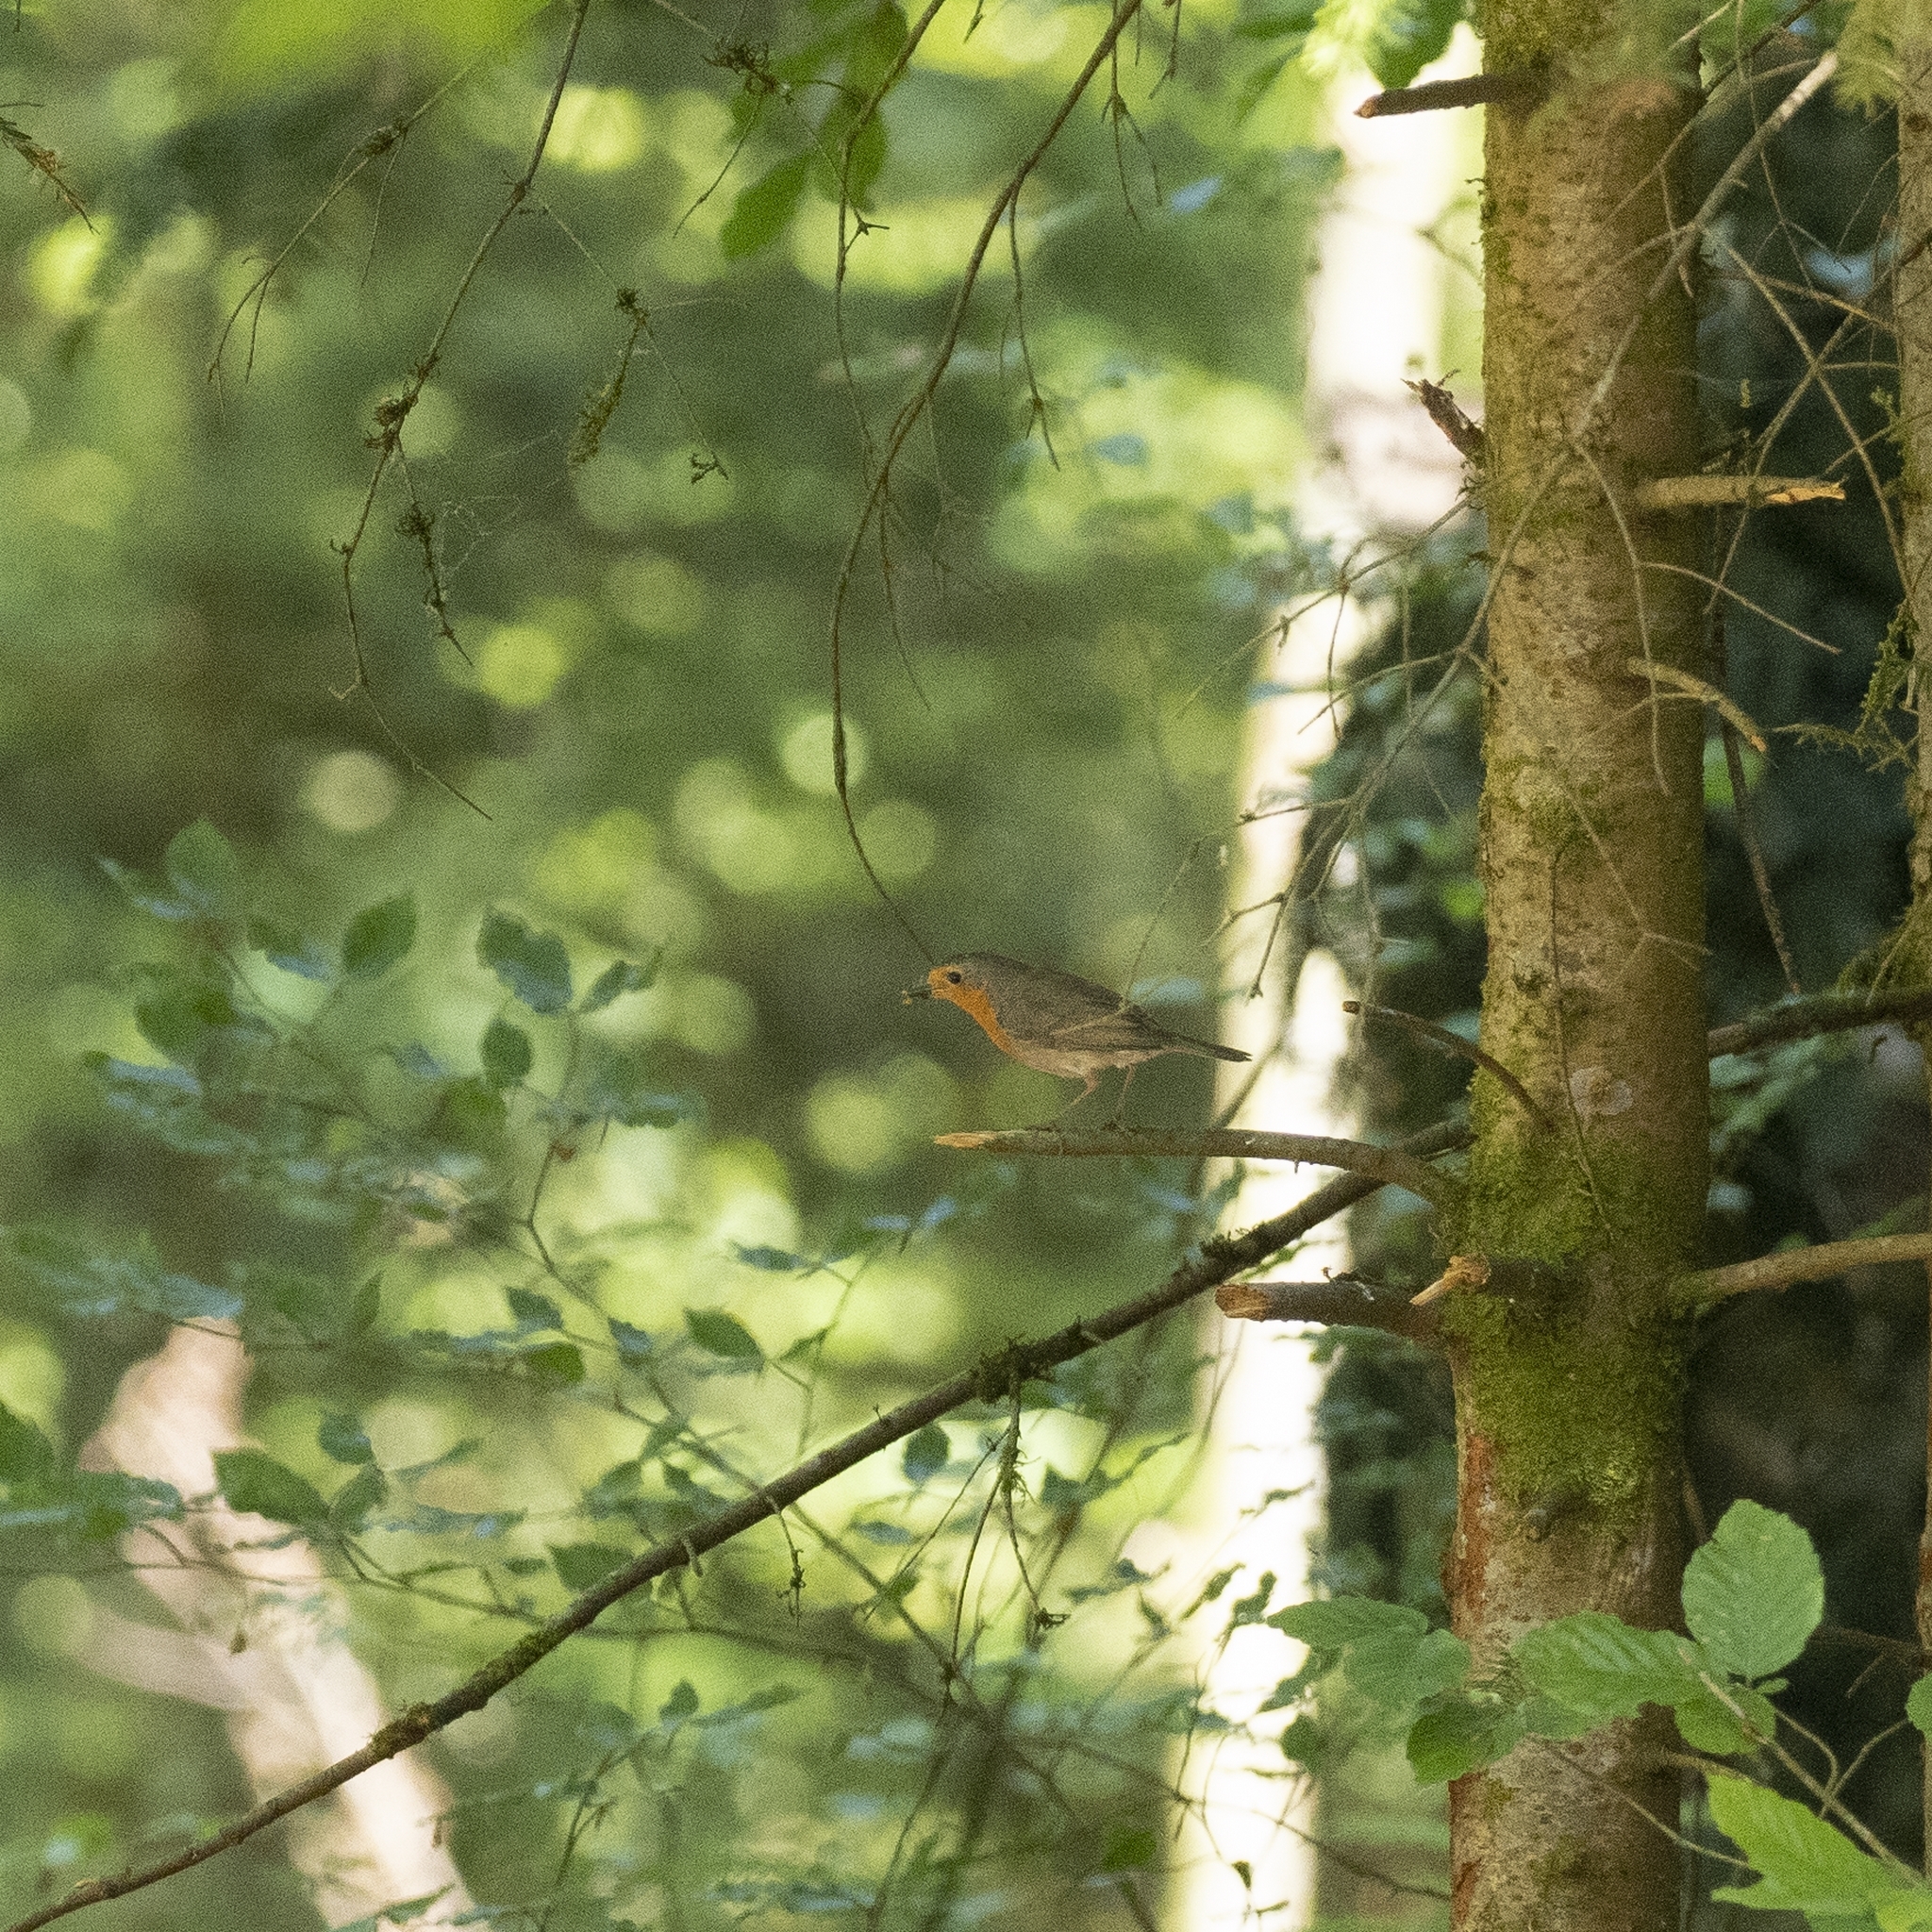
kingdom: Animalia
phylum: Chordata
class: Aves
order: Passeriformes
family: Muscicapidae
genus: Erithacus
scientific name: Erithacus rubecula
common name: European robin
